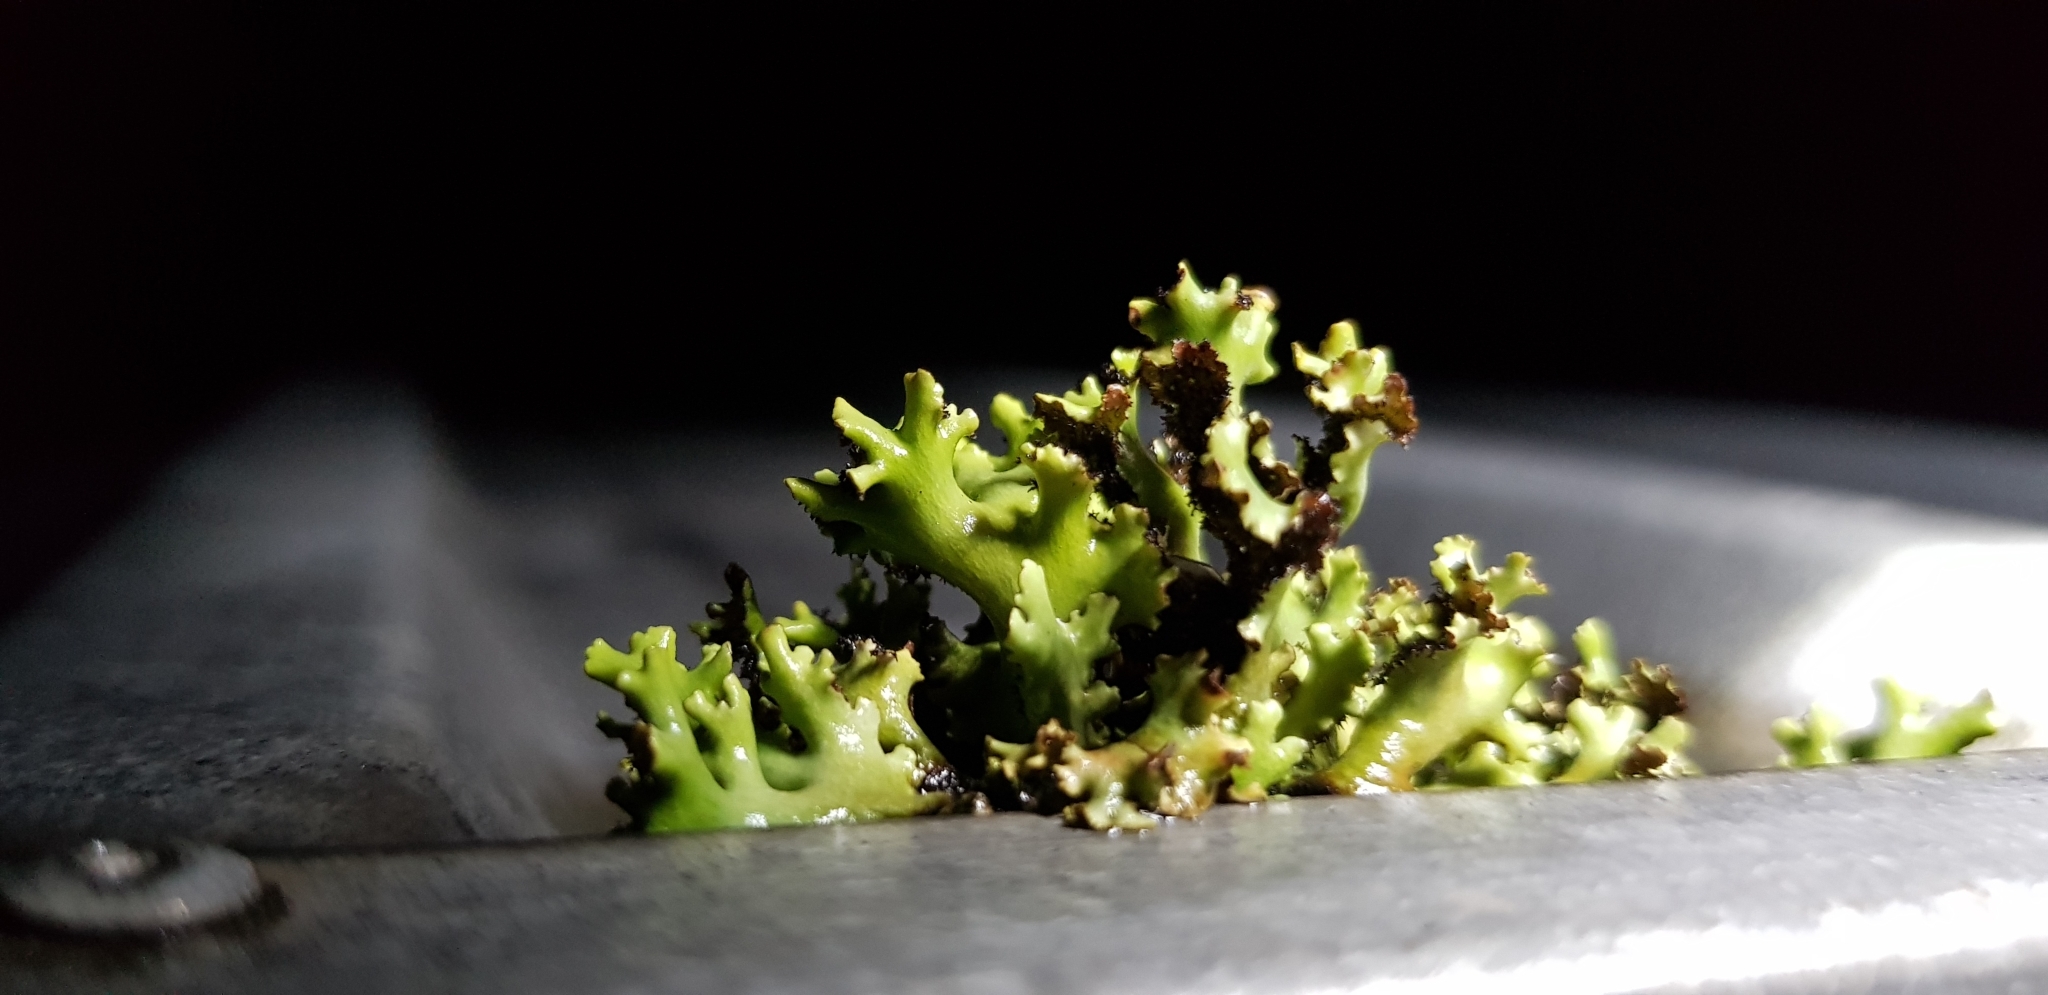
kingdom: Fungi
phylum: Ascomycota
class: Lecanoromycetes
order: Lecanorales
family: Cladoniaceae
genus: Cladia
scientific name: Cladia muelleri
